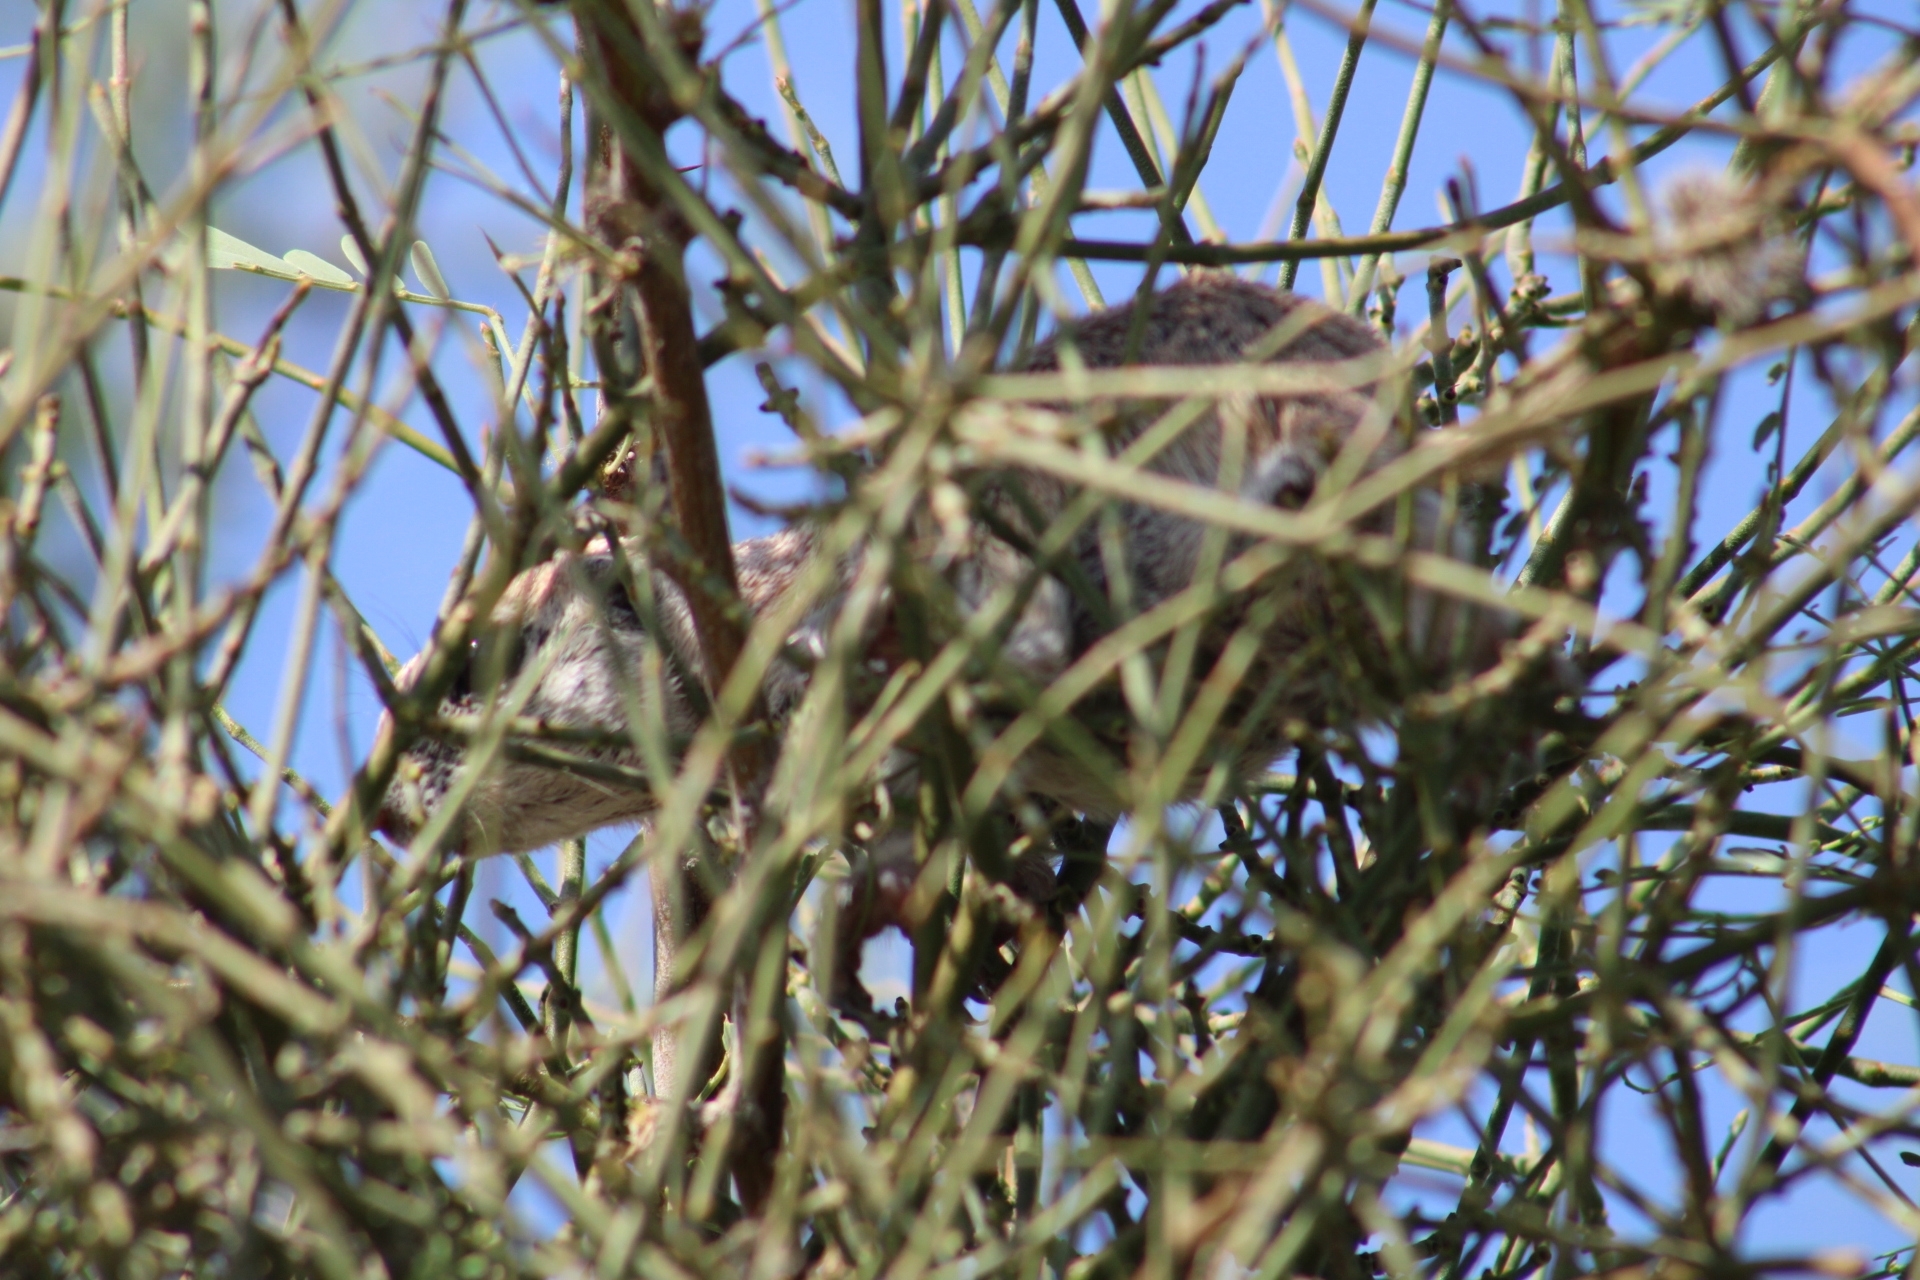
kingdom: Animalia
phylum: Chordata
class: Mammalia
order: Rodentia
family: Sciuridae
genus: Xerospermophilus
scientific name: Xerospermophilus tereticaudus
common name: Round-tailed ground squirrel
